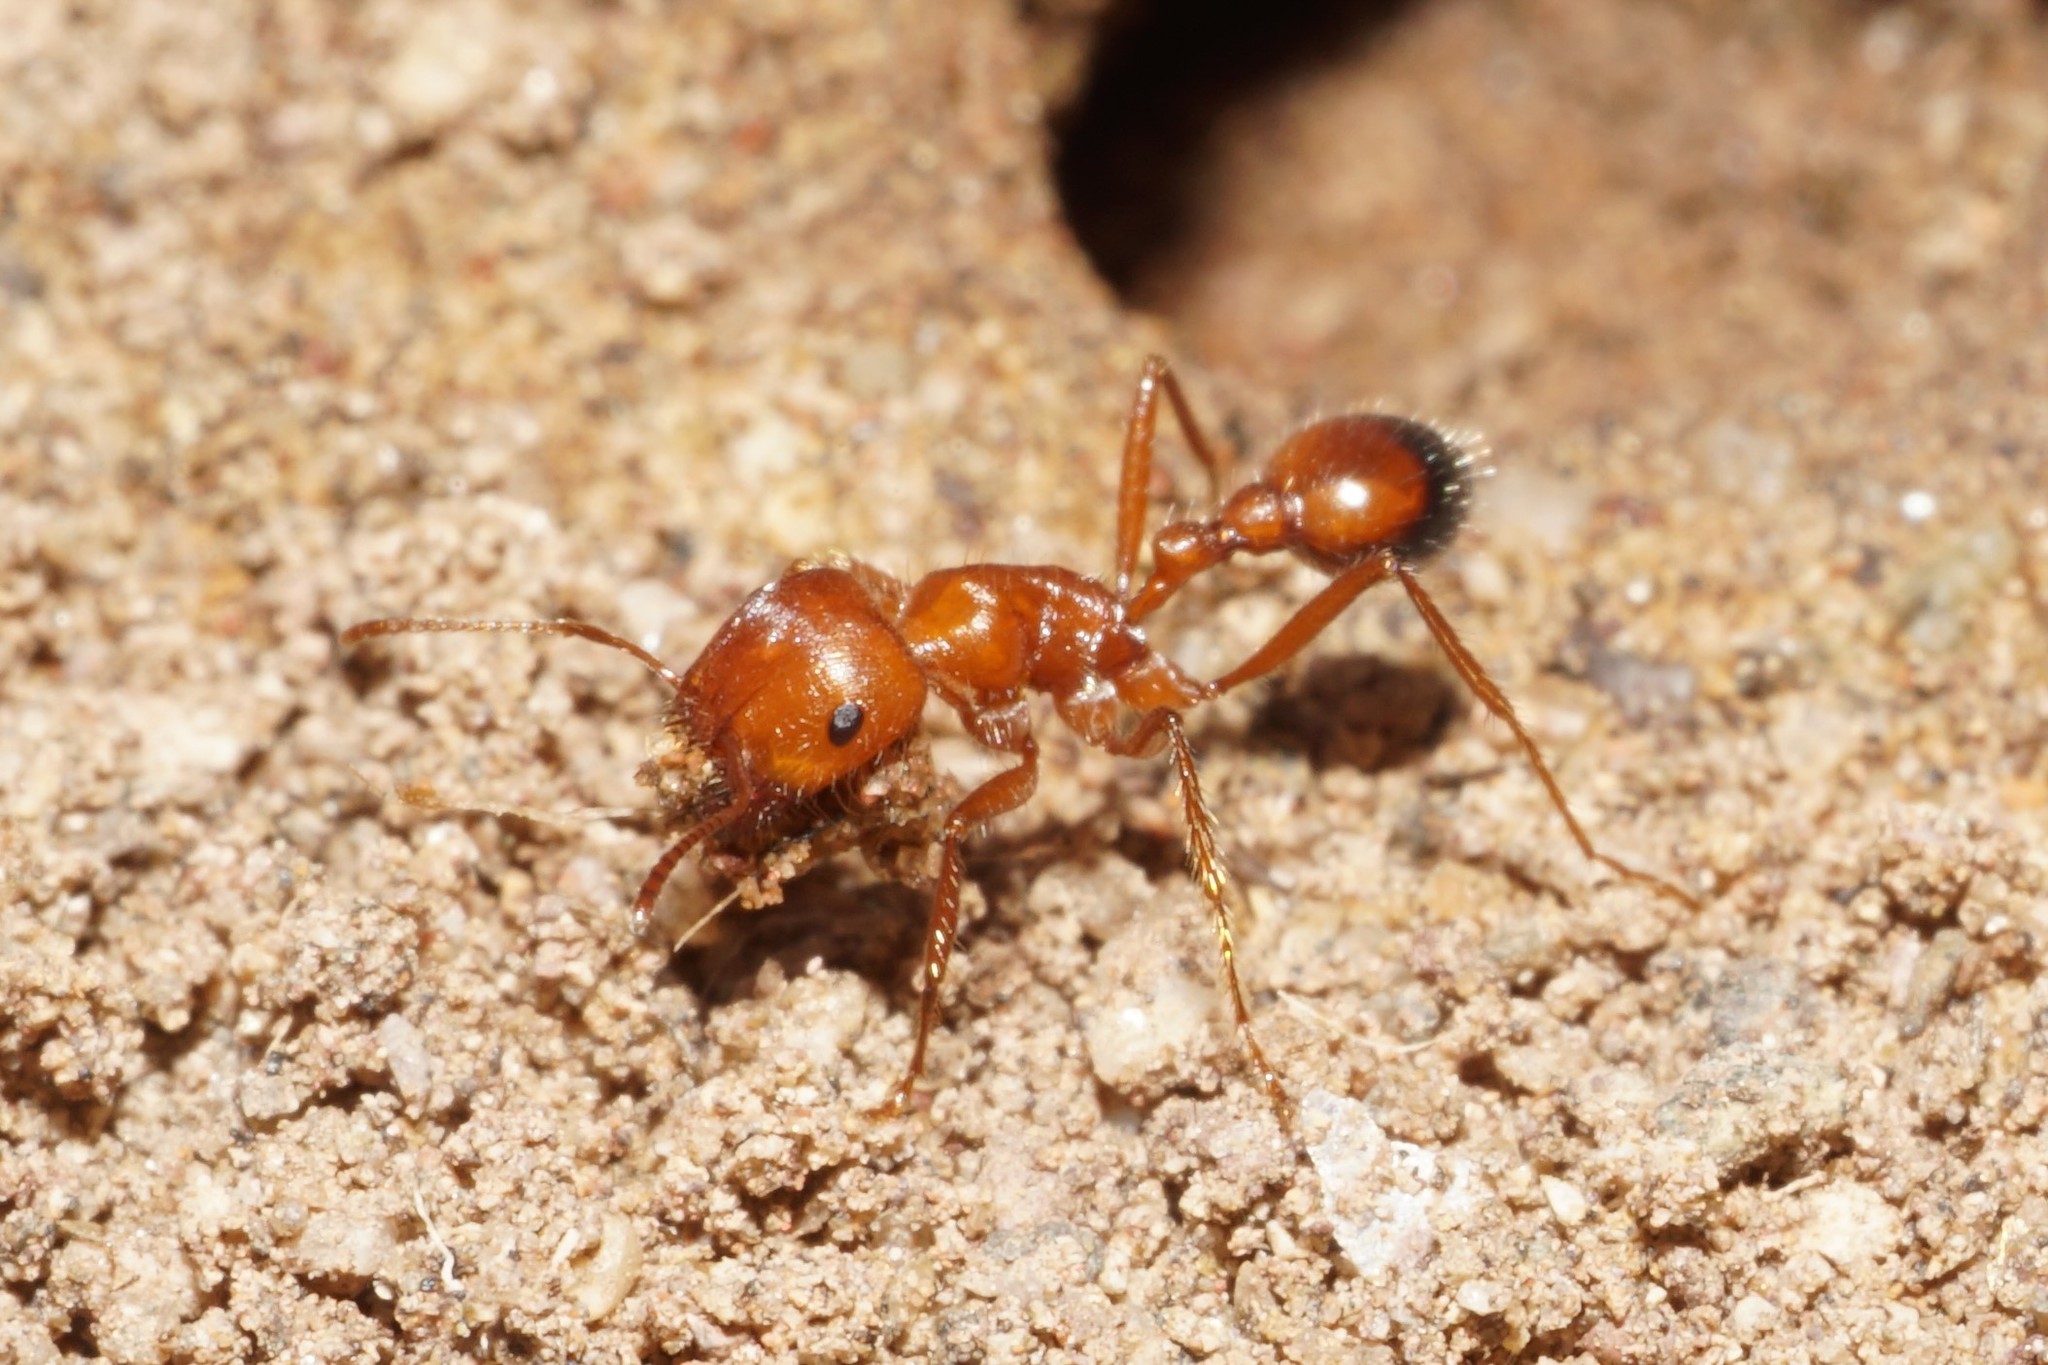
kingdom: Animalia
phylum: Arthropoda
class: Insecta
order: Hymenoptera
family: Formicidae
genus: Pogonomyrmex
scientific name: Pogonomyrmex californicus
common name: California harvester ant
